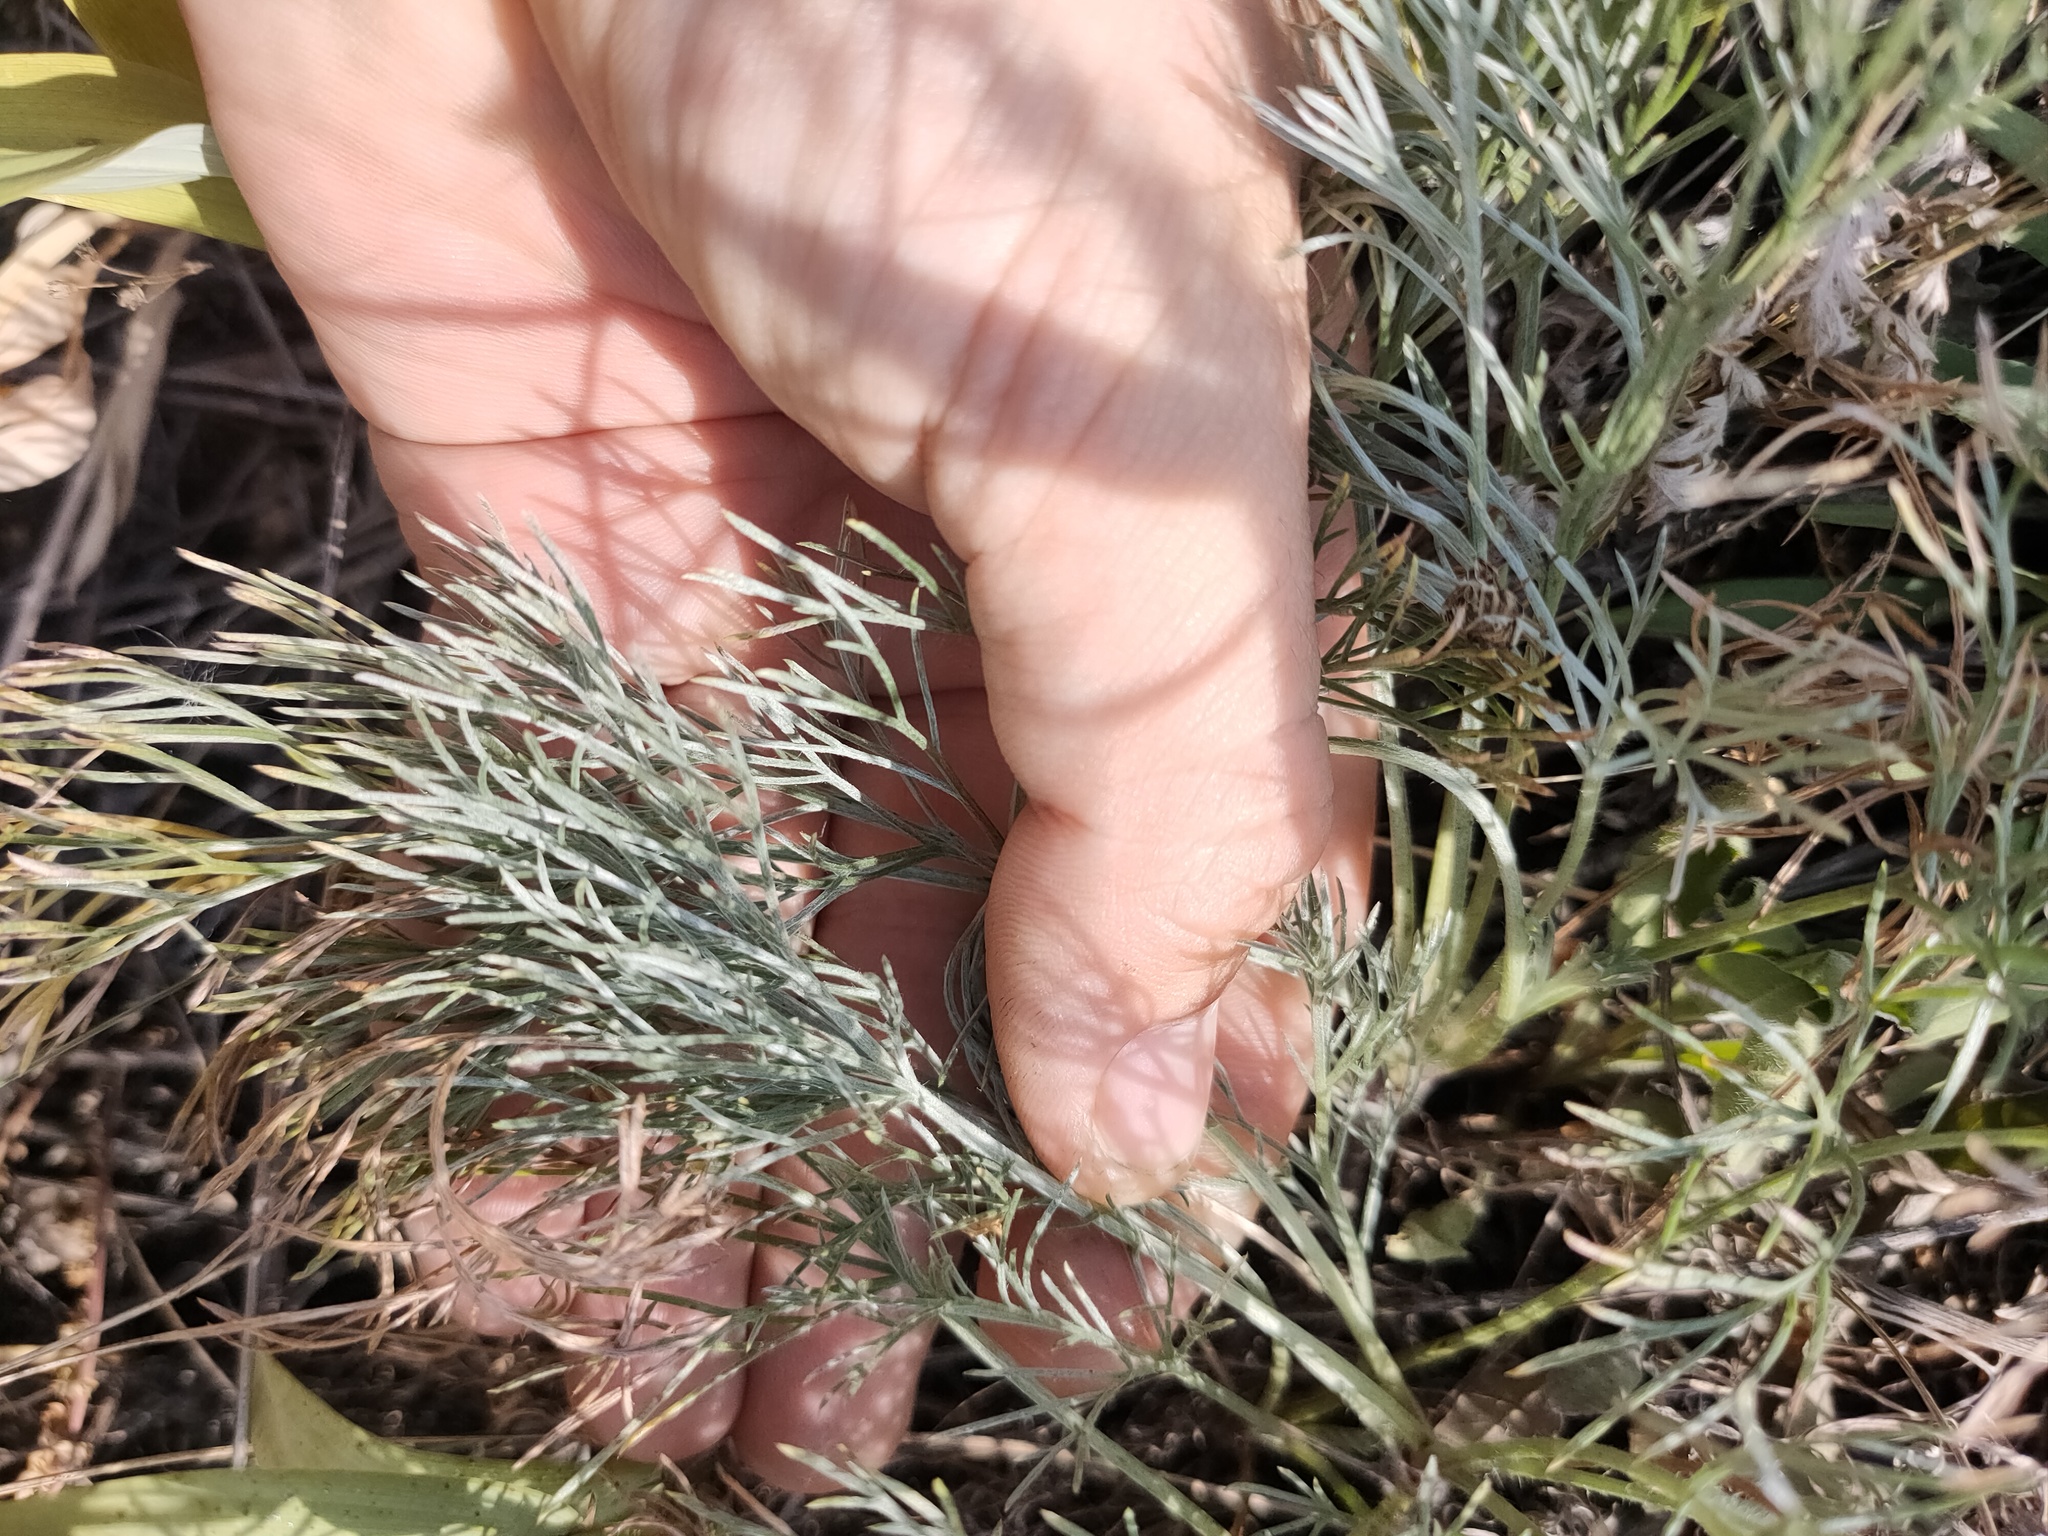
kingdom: Plantae
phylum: Tracheophyta
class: Magnoliopsida
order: Asterales
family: Asteraceae
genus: Artemisia
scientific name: Artemisia sericea
